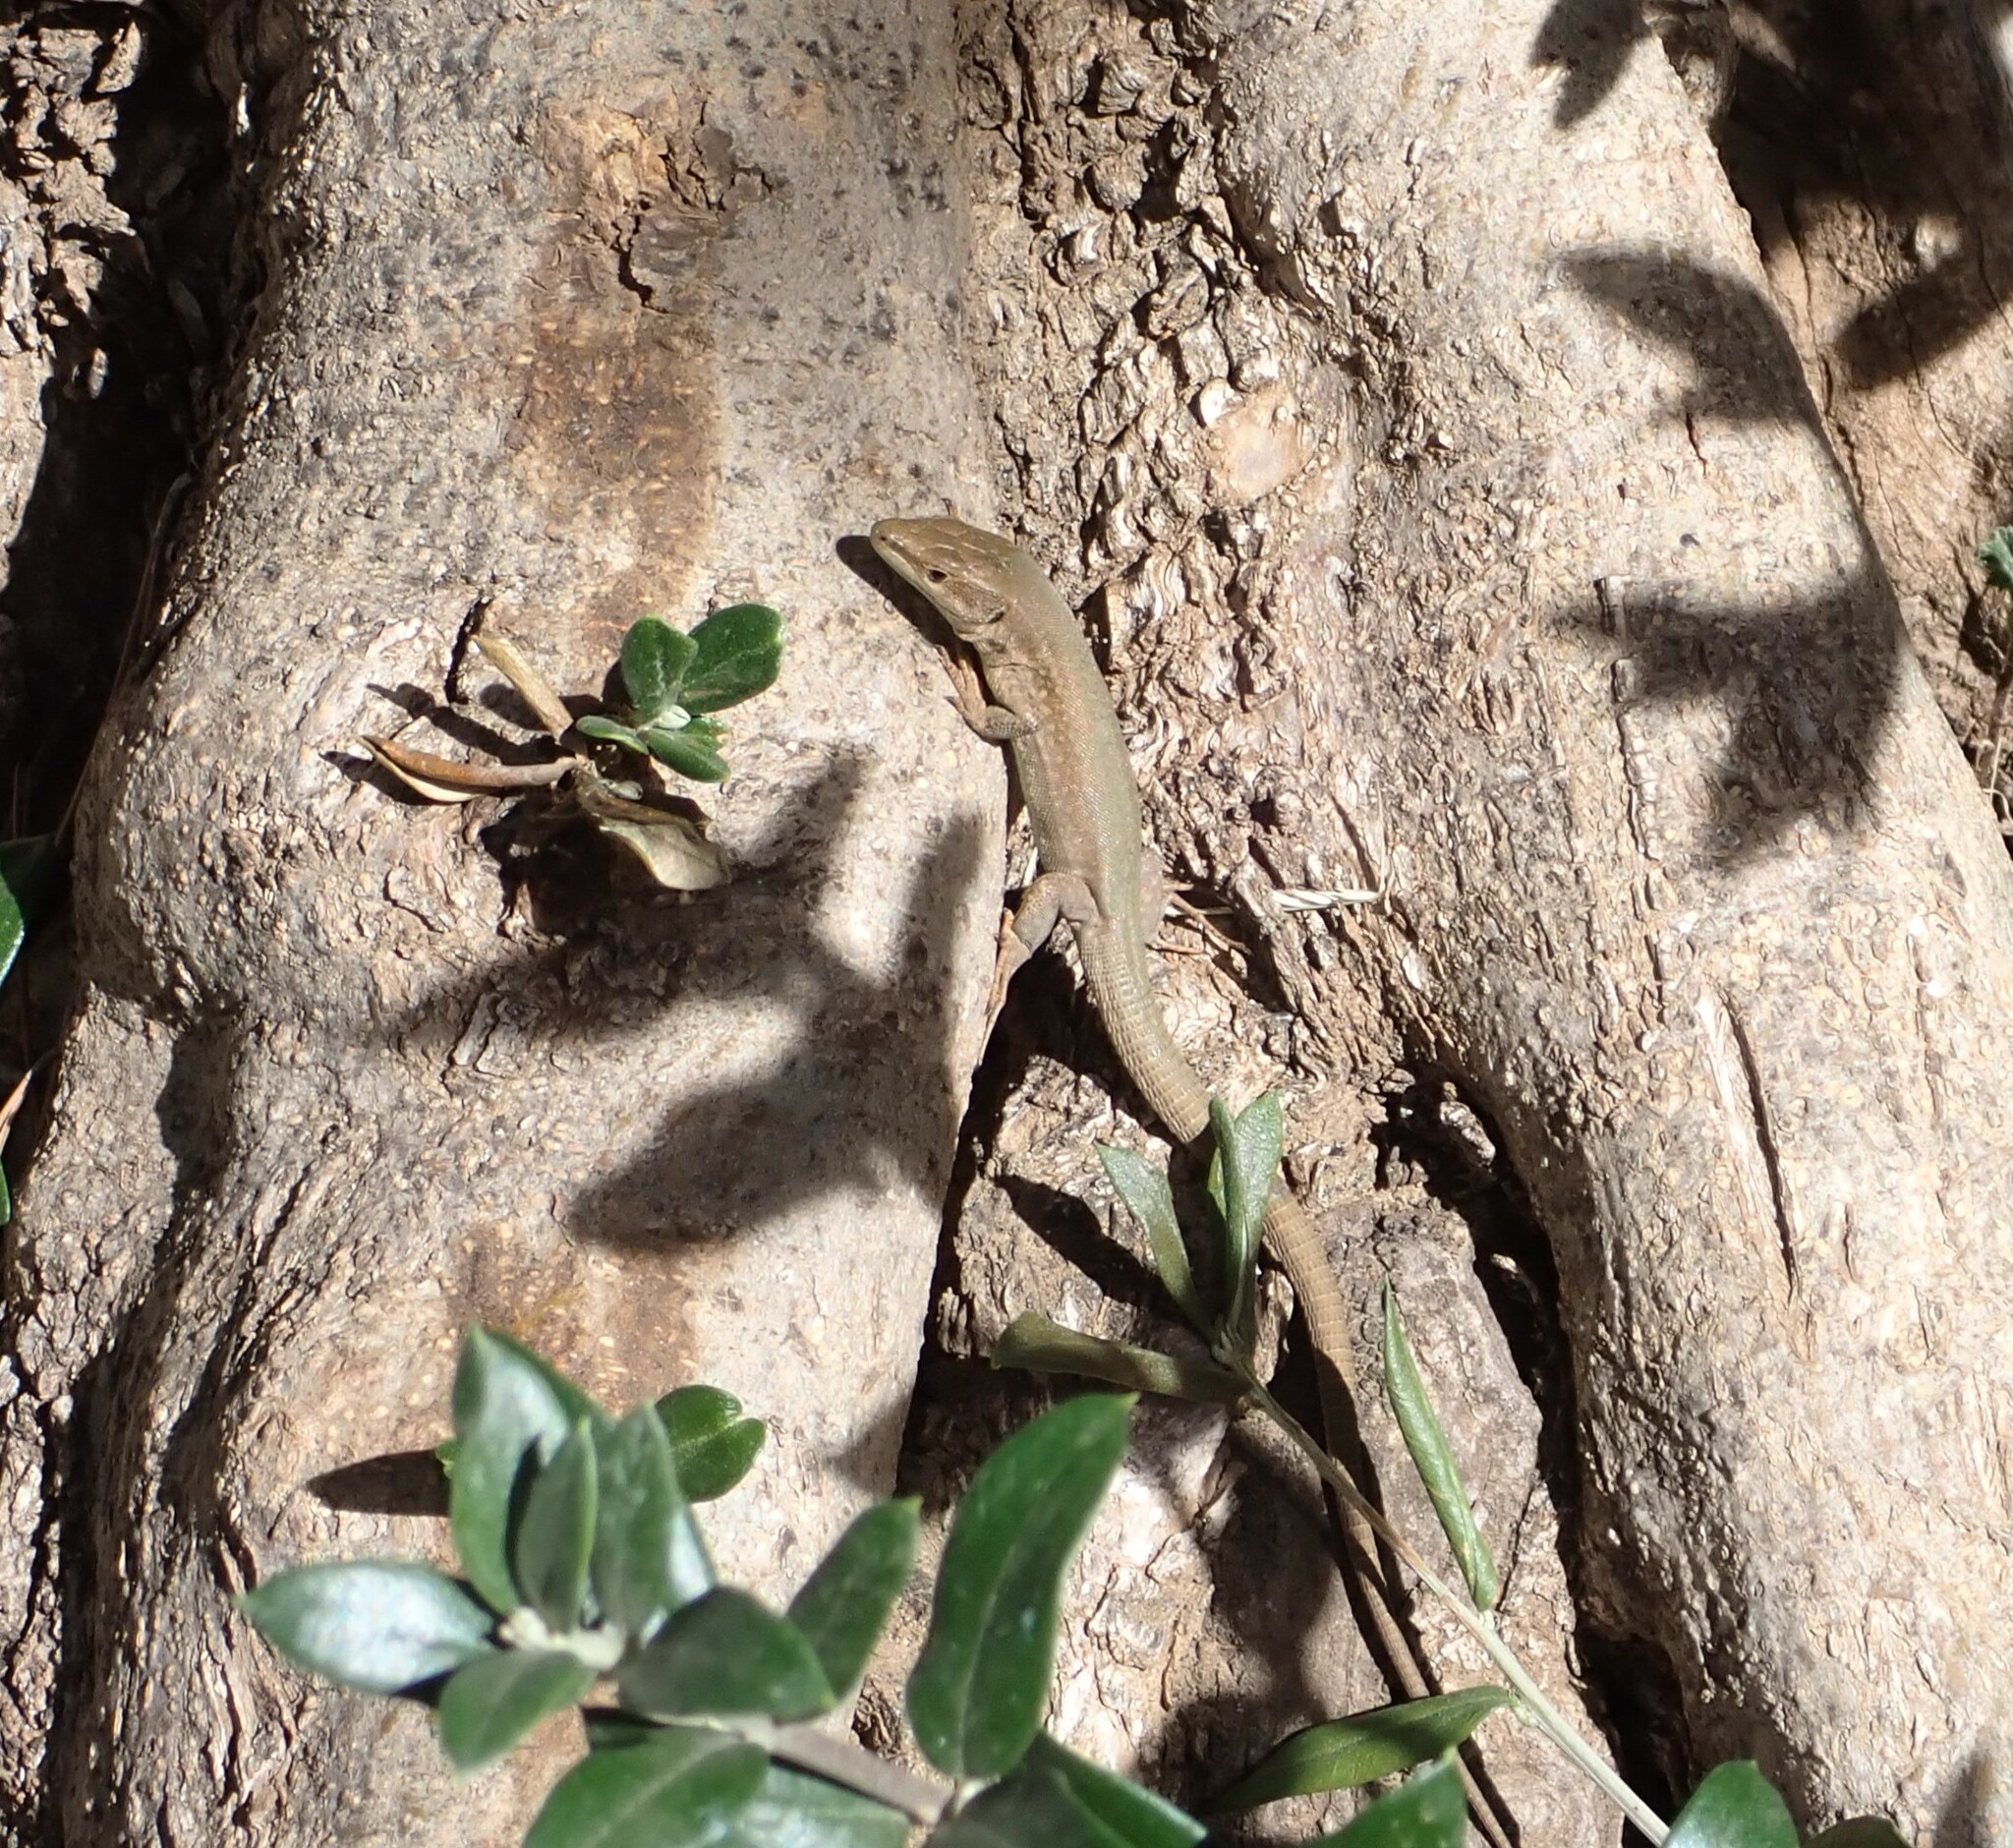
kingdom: Animalia
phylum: Chordata
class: Squamata
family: Lacertidae
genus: Podarcis
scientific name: Podarcis liolepis
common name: Catalonian wall lizard
